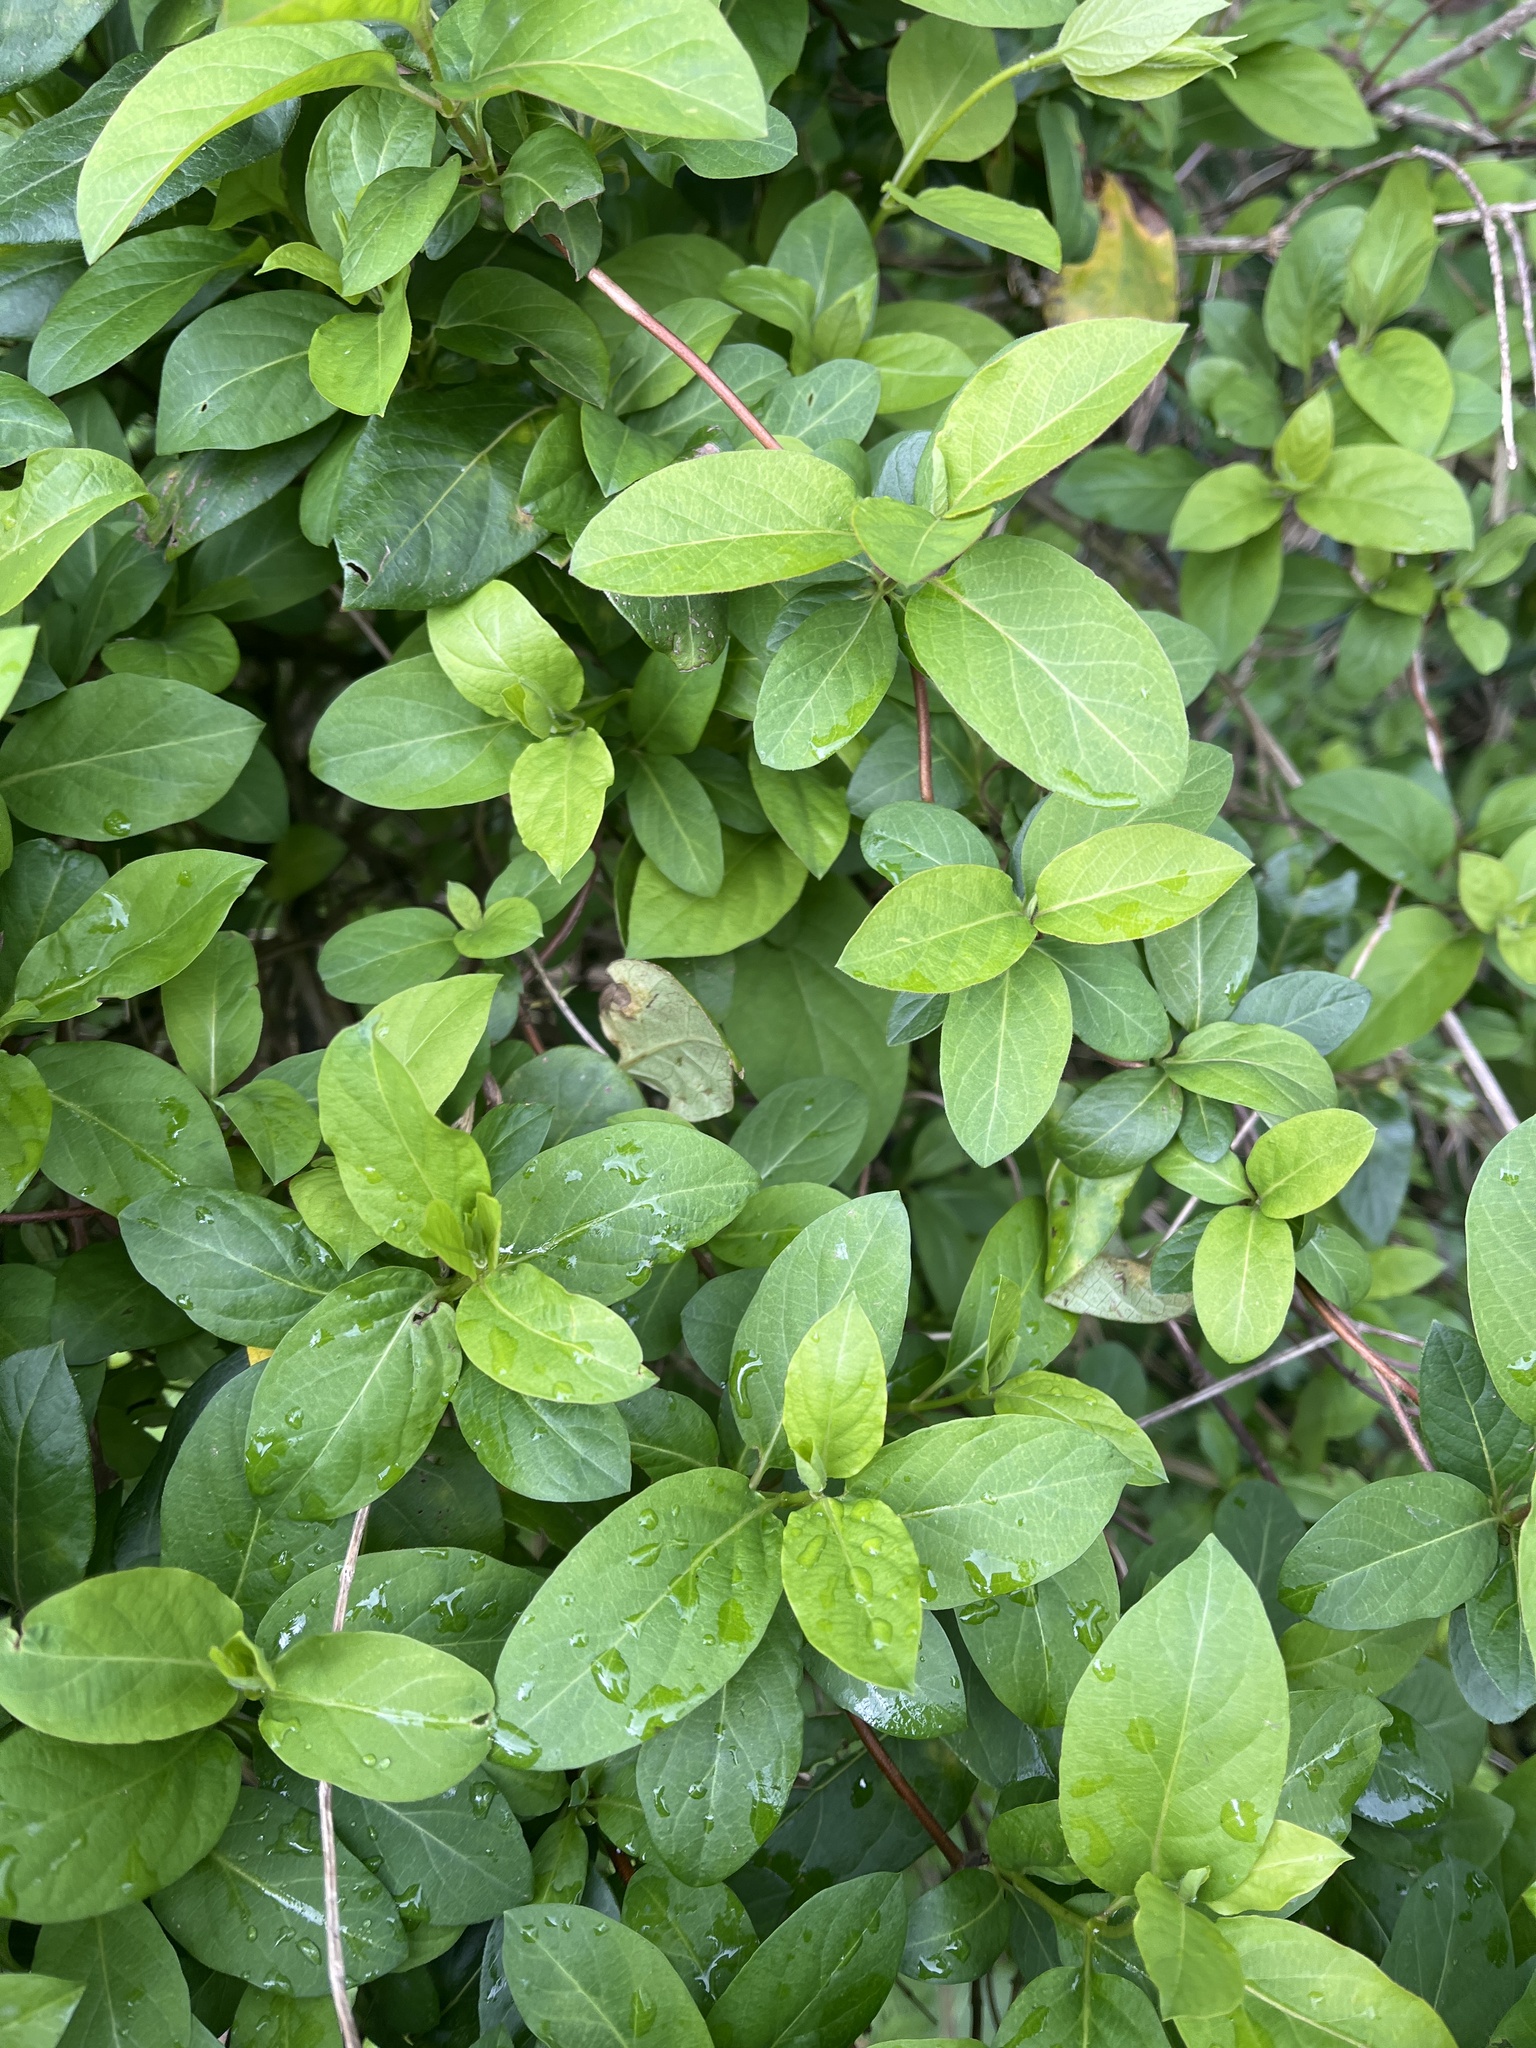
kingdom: Plantae
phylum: Tracheophyta
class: Magnoliopsida
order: Dipsacales
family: Caprifoliaceae
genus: Lonicera
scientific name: Lonicera japonica
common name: Japanese honeysuckle
